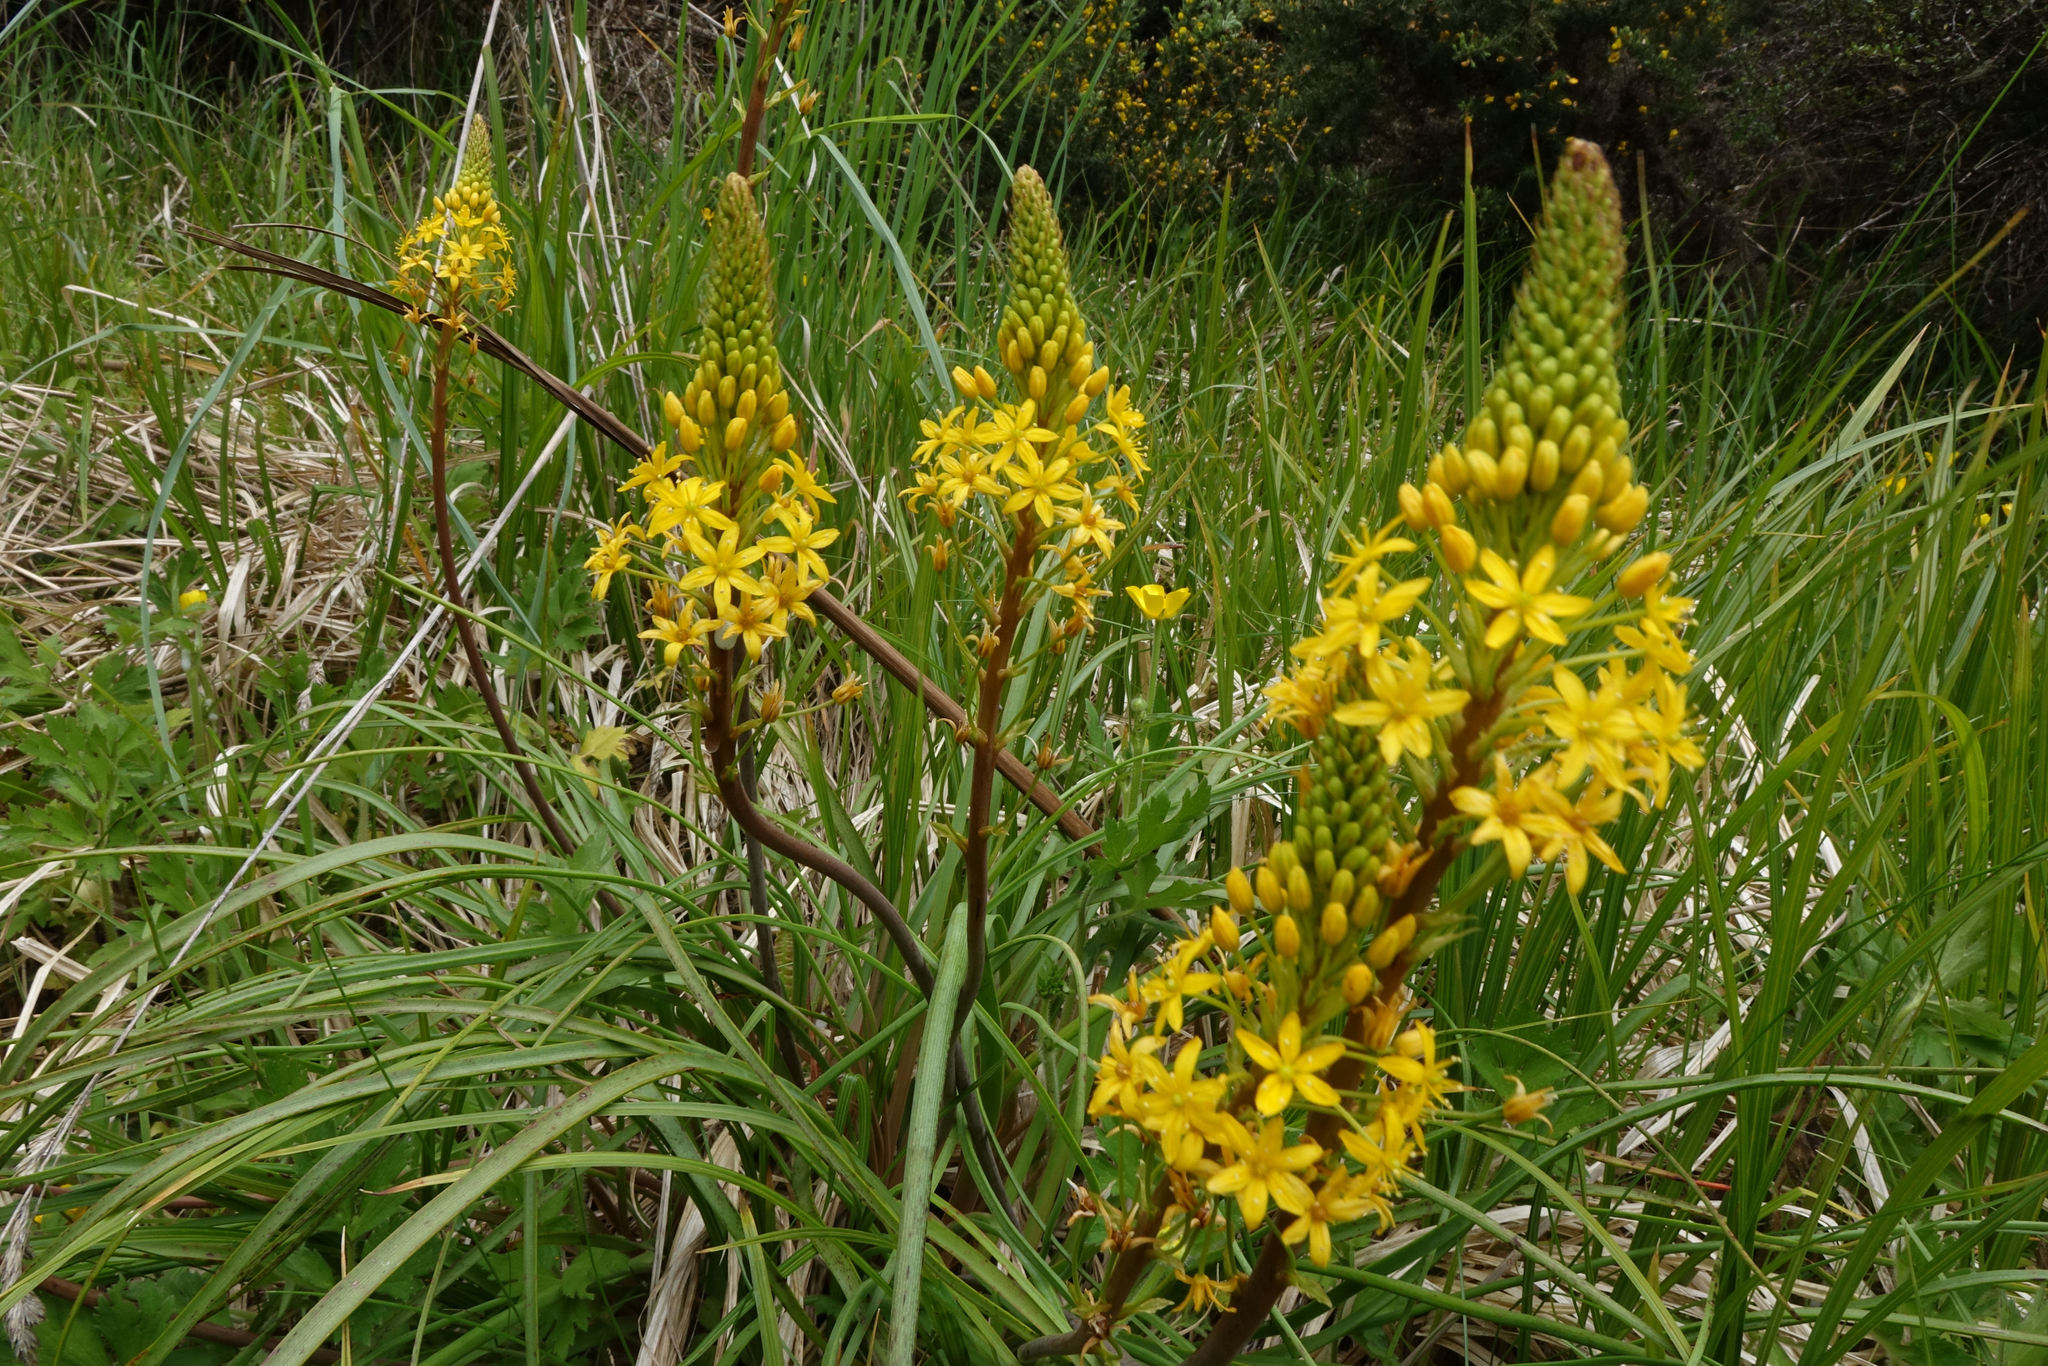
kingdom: Plantae
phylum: Tracheophyta
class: Liliopsida
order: Asparagales
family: Asphodelaceae
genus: Bulbinella
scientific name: Bulbinella angustifolia
